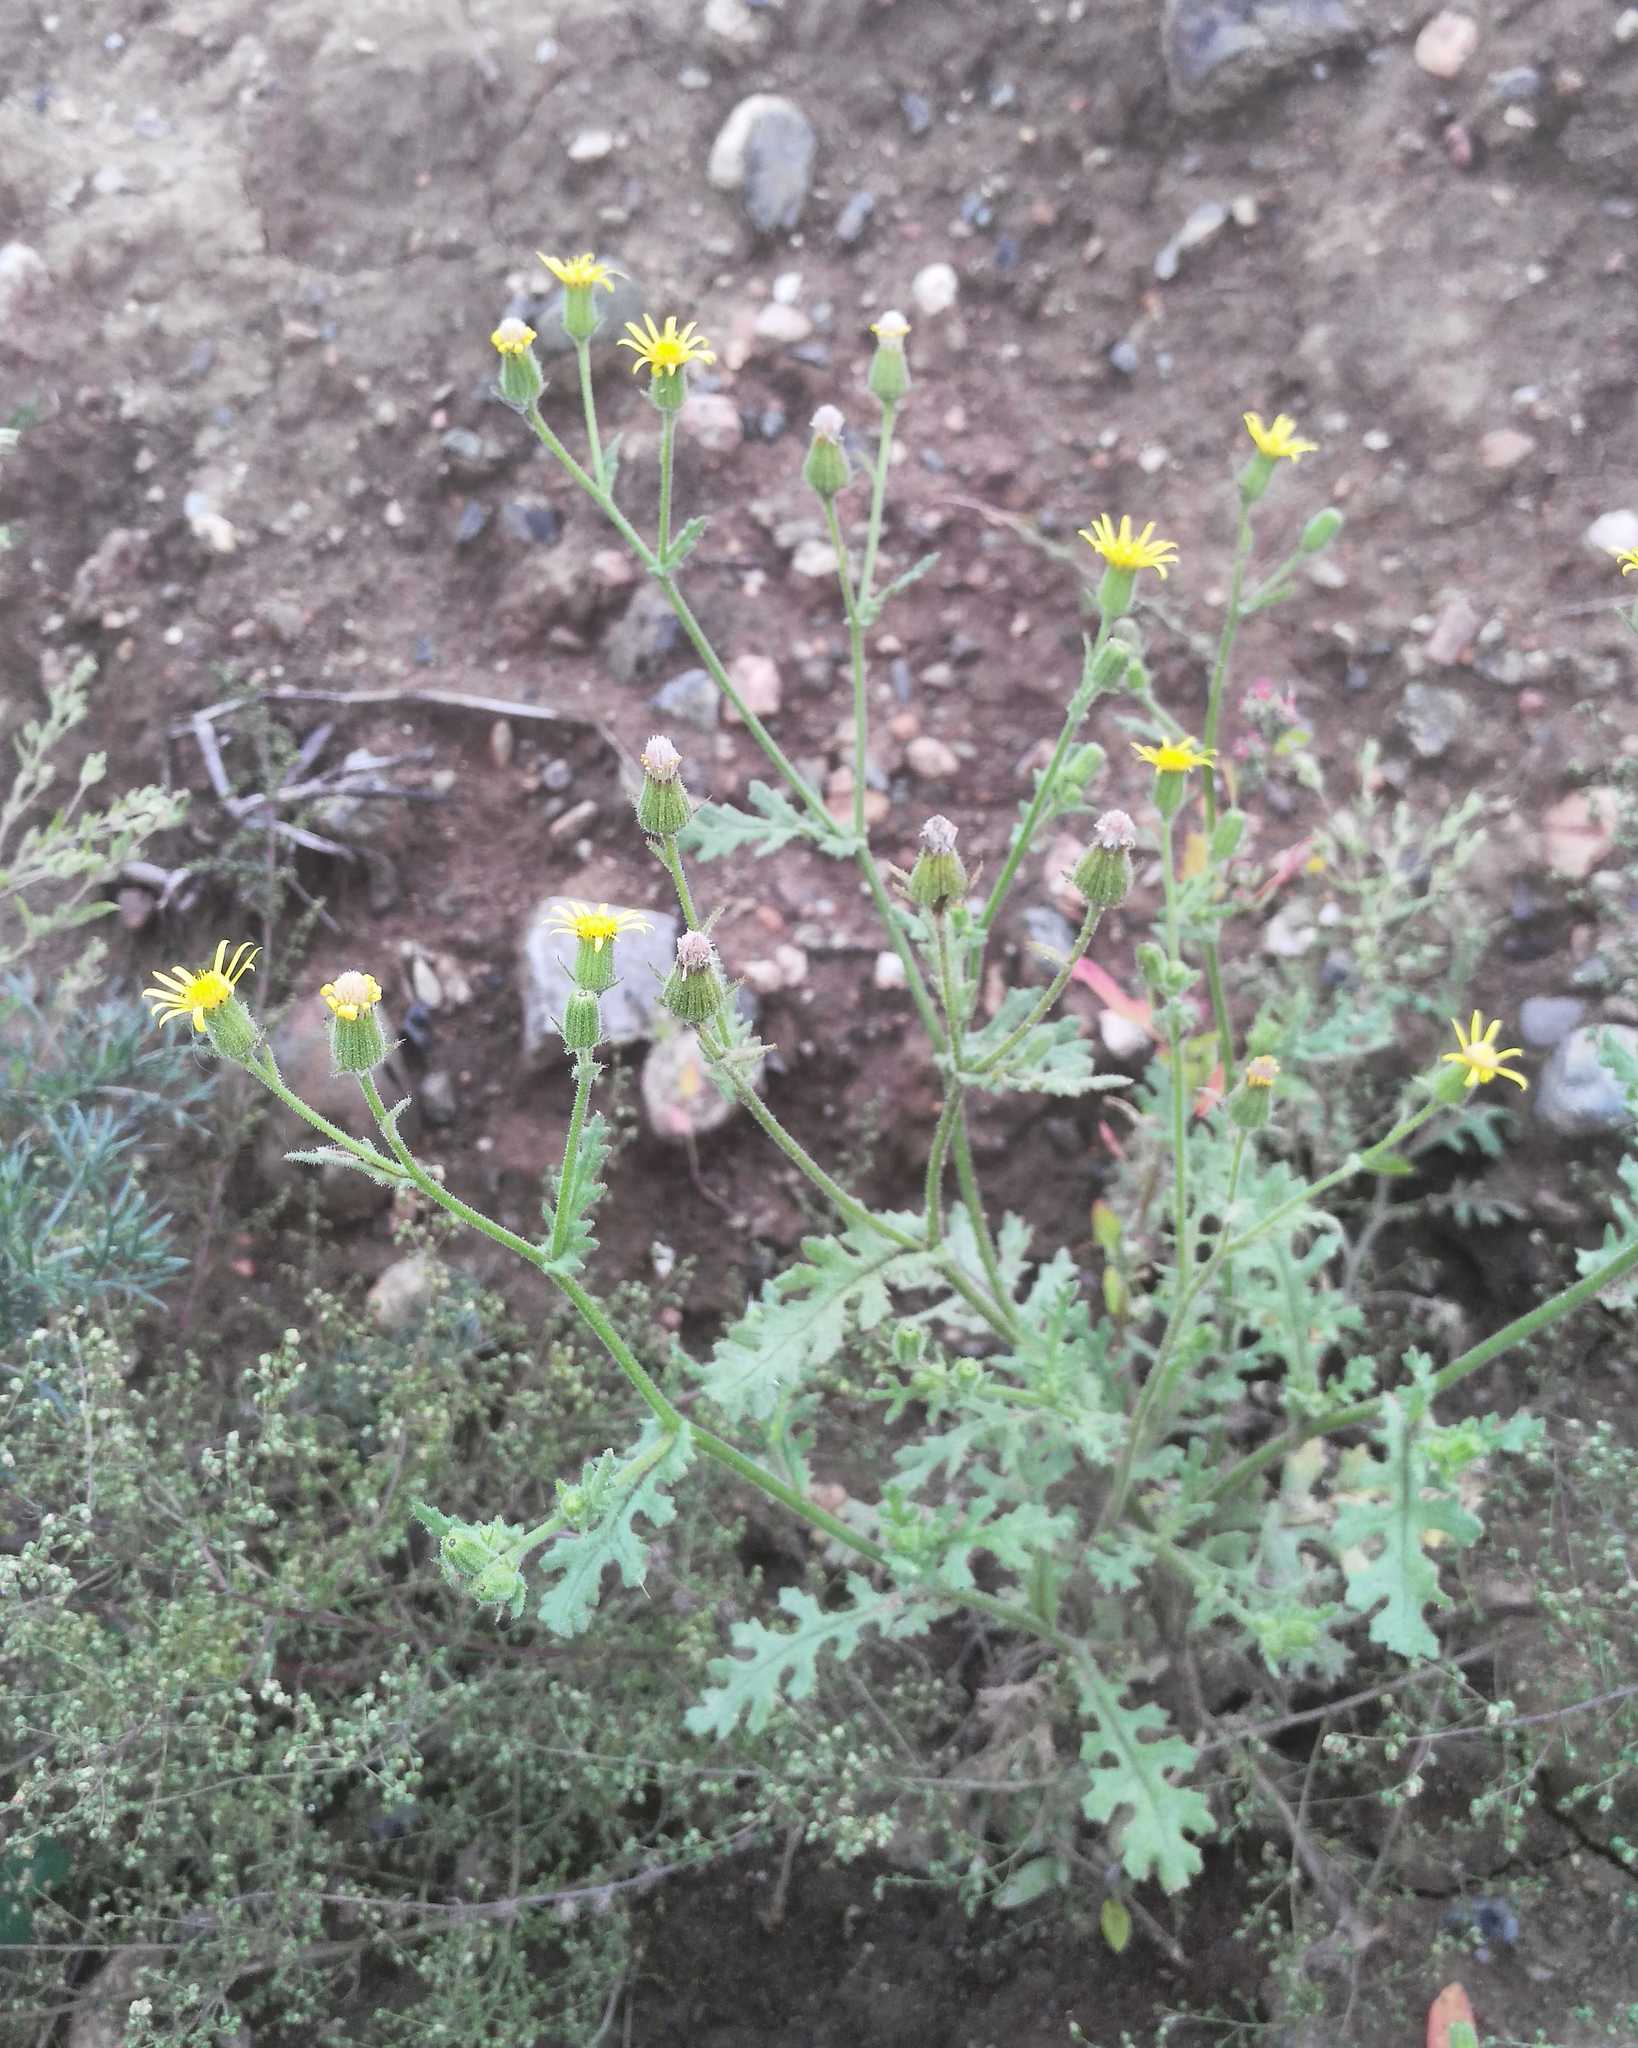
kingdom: Plantae
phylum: Tracheophyta
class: Magnoliopsida
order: Asterales
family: Asteraceae
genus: Senecio
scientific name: Senecio viscosus
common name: Sticky groundsel
